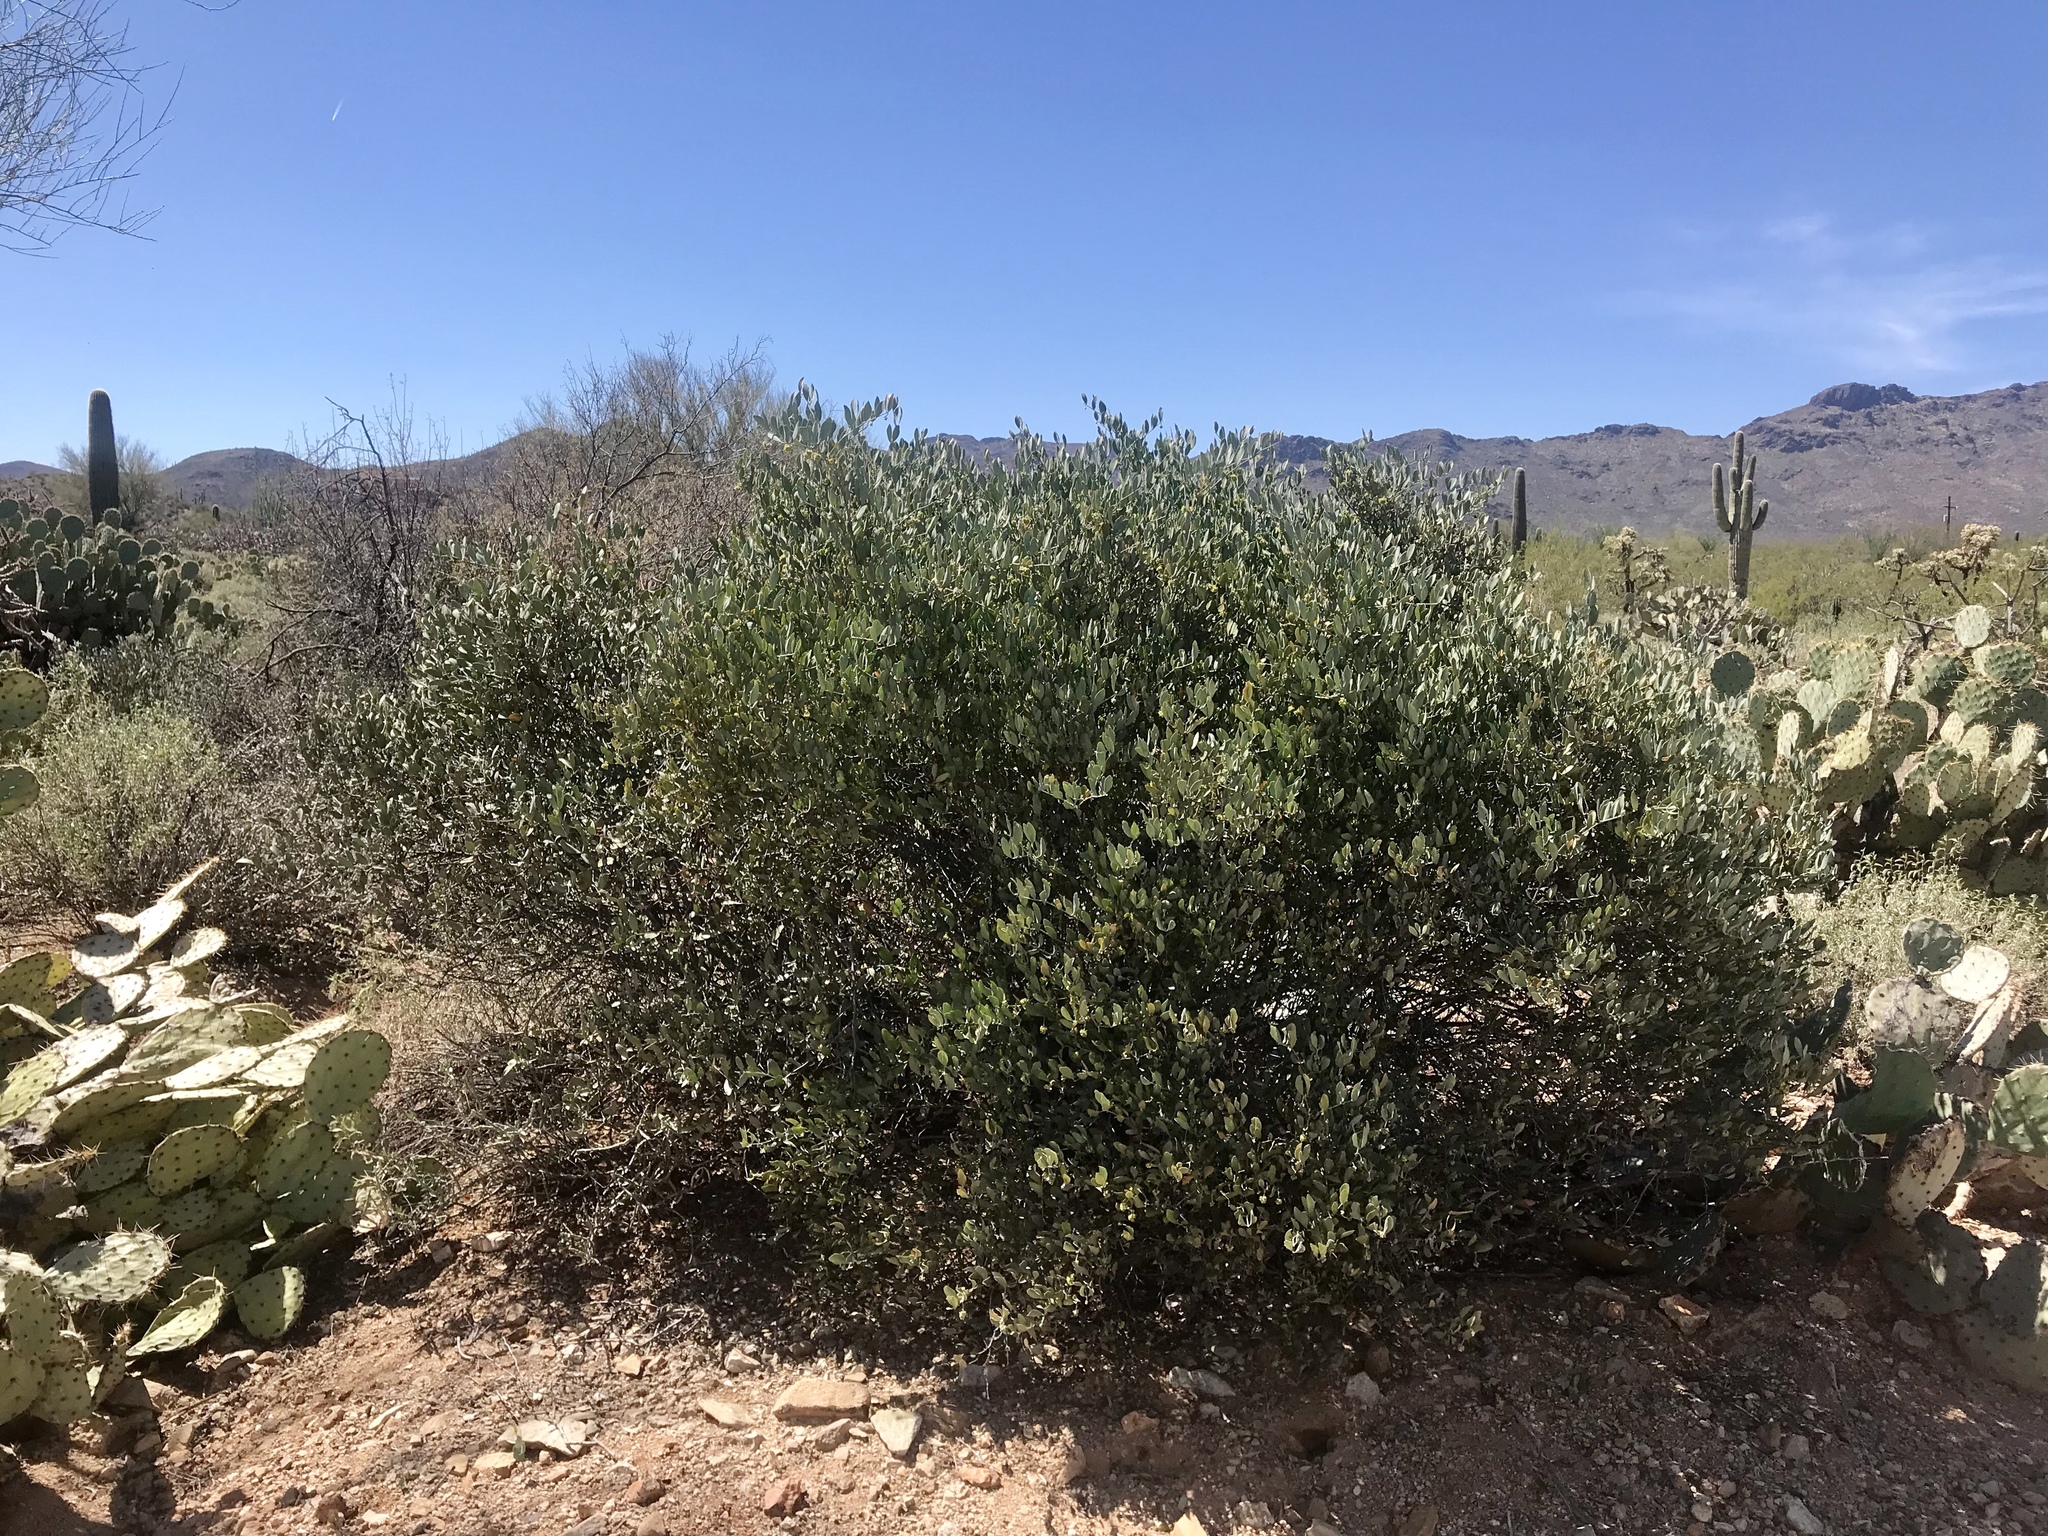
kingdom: Plantae
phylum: Tracheophyta
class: Magnoliopsida
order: Caryophyllales
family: Simmondsiaceae
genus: Simmondsia
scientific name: Simmondsia chinensis
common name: Jojoba
